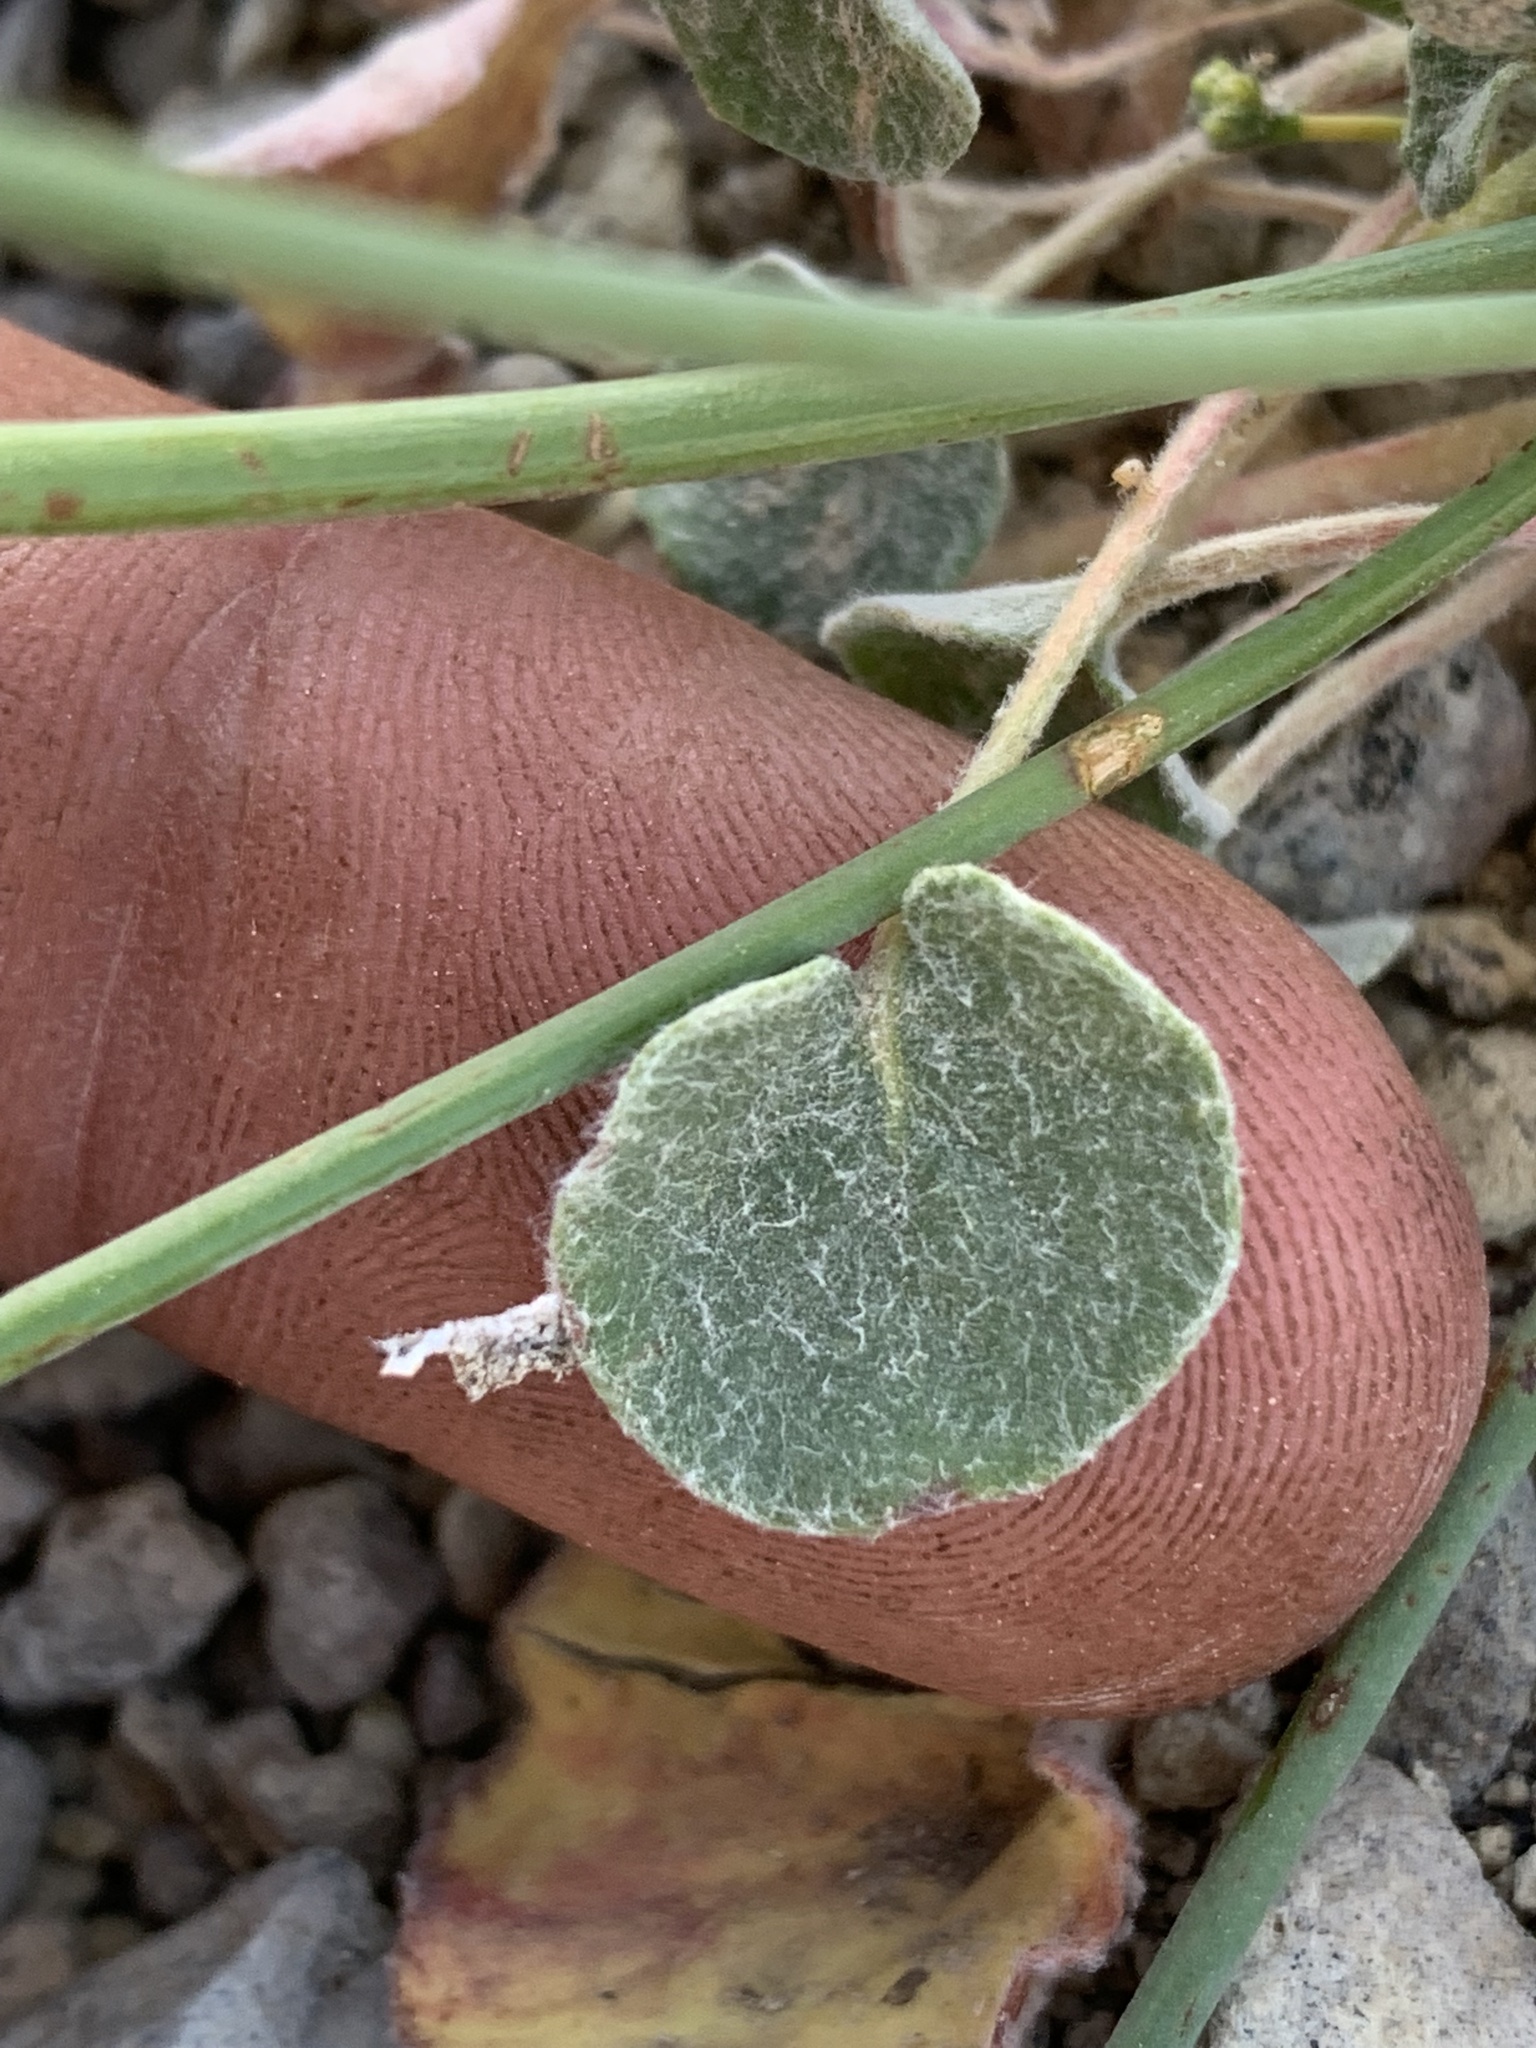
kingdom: Plantae
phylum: Tracheophyta
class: Magnoliopsida
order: Caryophyllales
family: Polygonaceae
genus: Eriogonum
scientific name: Eriogonum nudum
